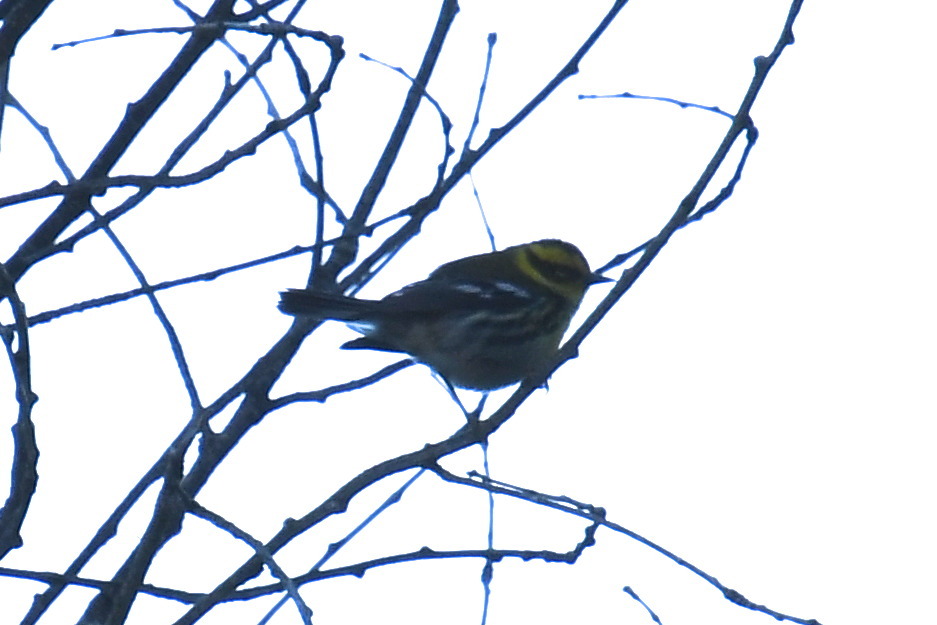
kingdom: Animalia
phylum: Chordata
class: Aves
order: Passeriformes
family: Parulidae
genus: Setophaga
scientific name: Setophaga townsendi
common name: Townsend's warbler
